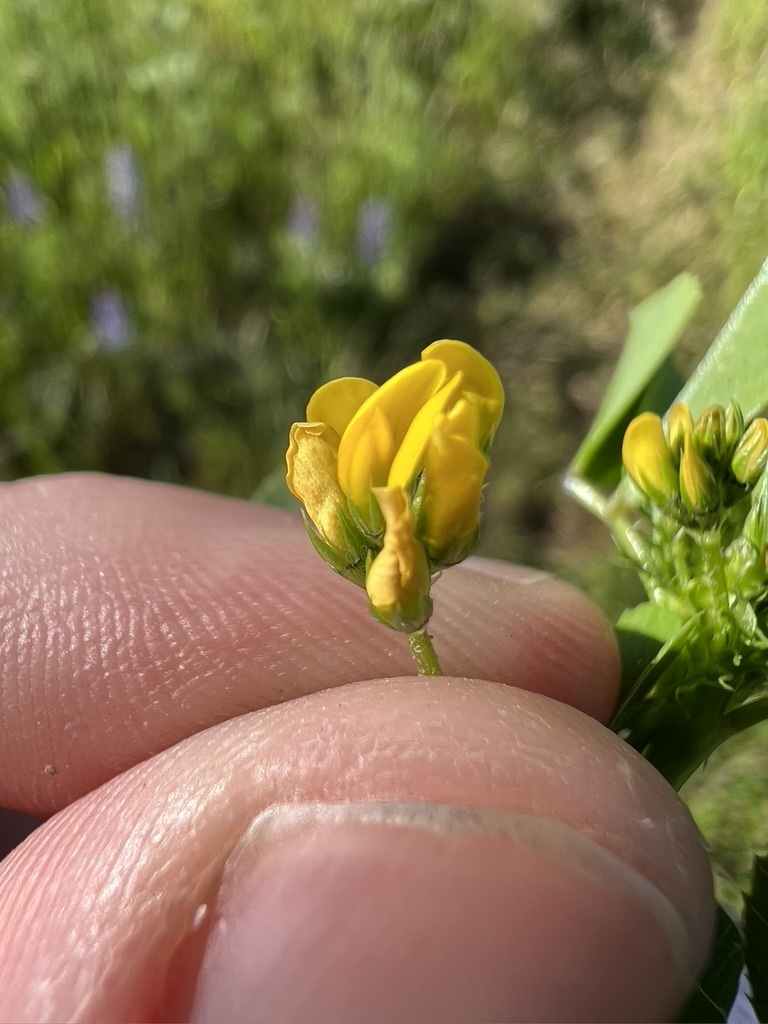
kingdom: Plantae
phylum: Tracheophyta
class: Magnoliopsida
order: Fabales
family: Fabaceae
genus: Medicago
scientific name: Medicago polymorpha
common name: Burclover
